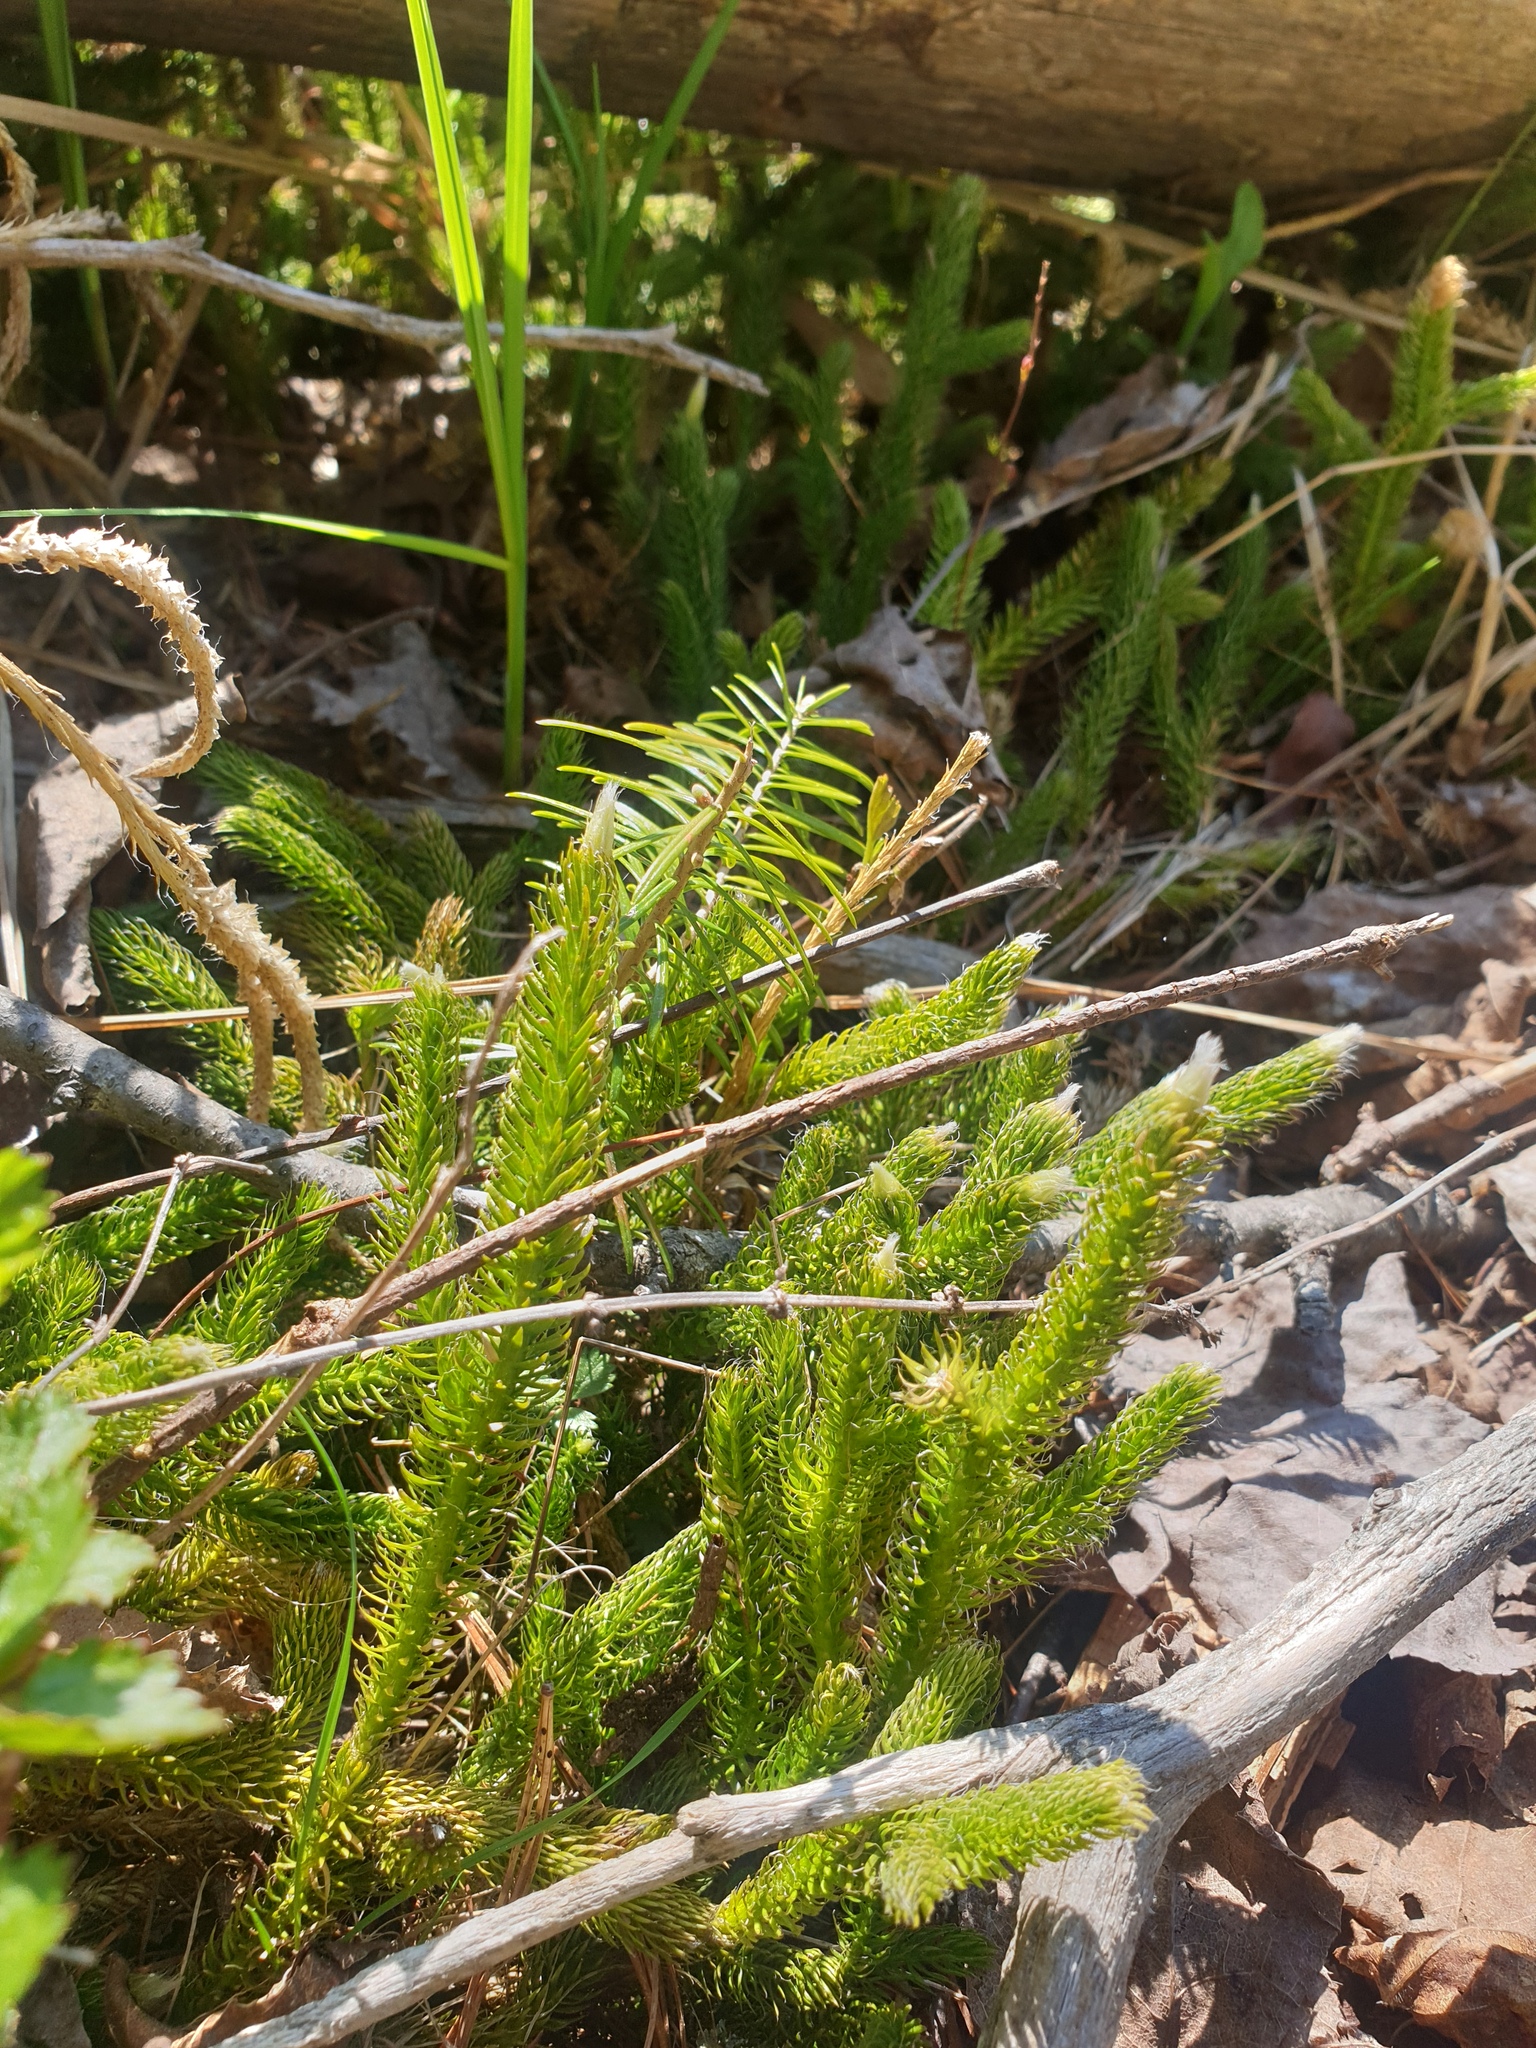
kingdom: Plantae
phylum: Tracheophyta
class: Lycopodiopsida
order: Lycopodiales
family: Lycopodiaceae
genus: Lycopodium
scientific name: Lycopodium clavatum
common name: Stag's-horn clubmoss
